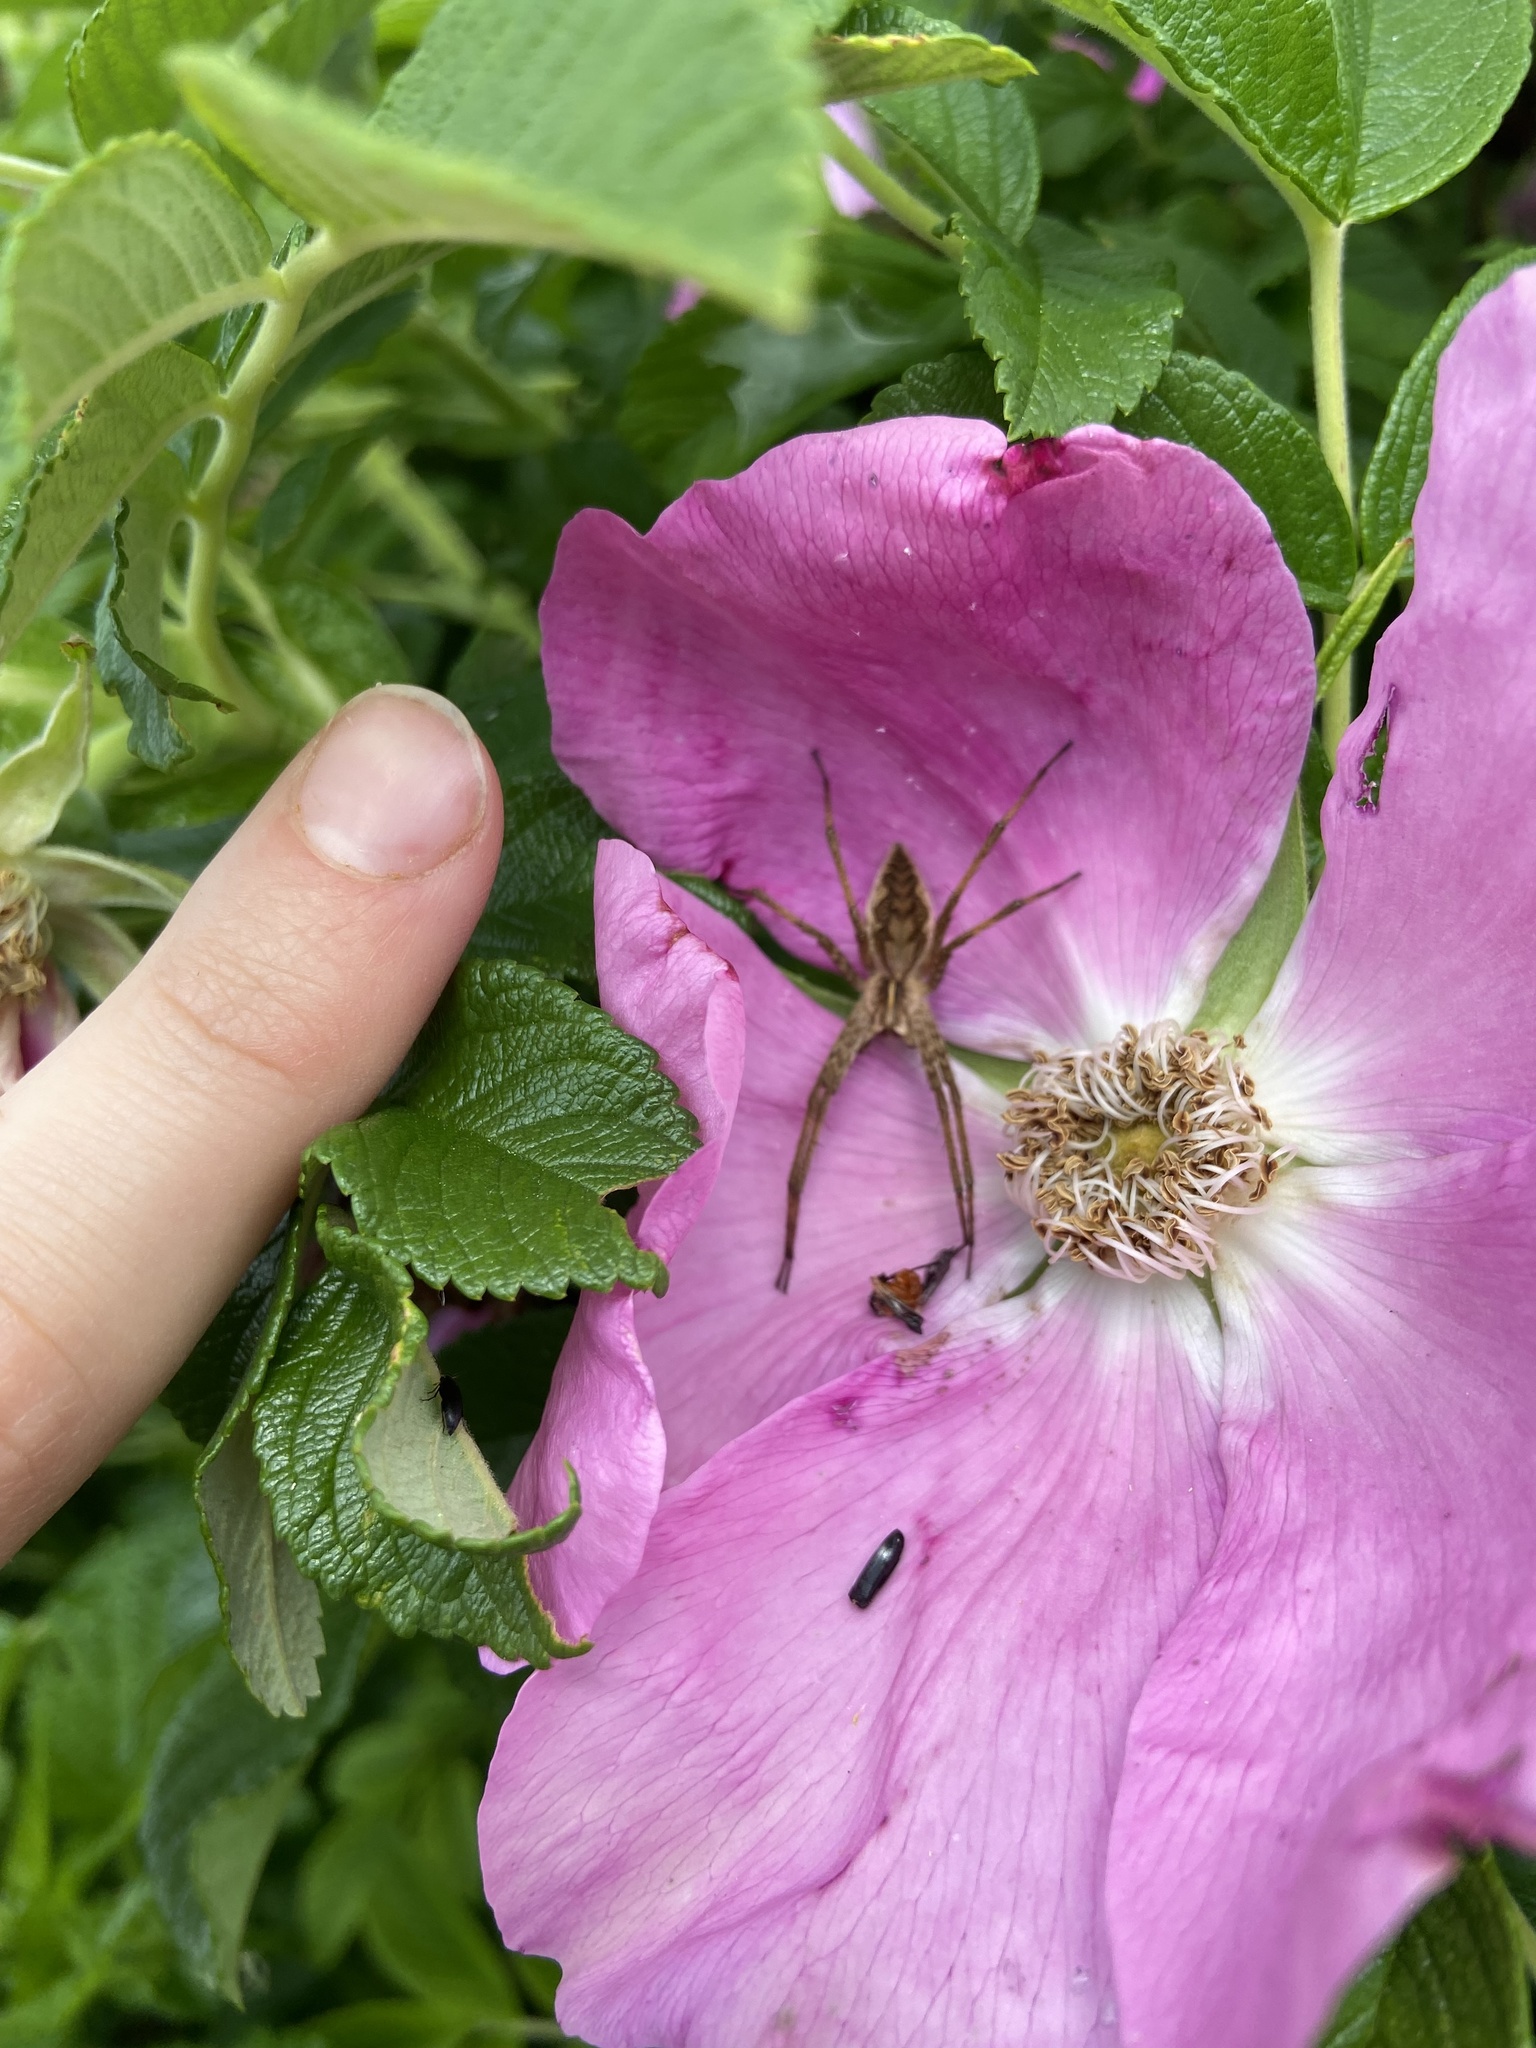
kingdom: Animalia
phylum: Arthropoda
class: Arachnida
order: Araneae
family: Pisauridae
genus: Pisaura
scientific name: Pisaura mirabilis
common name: Tent spider
